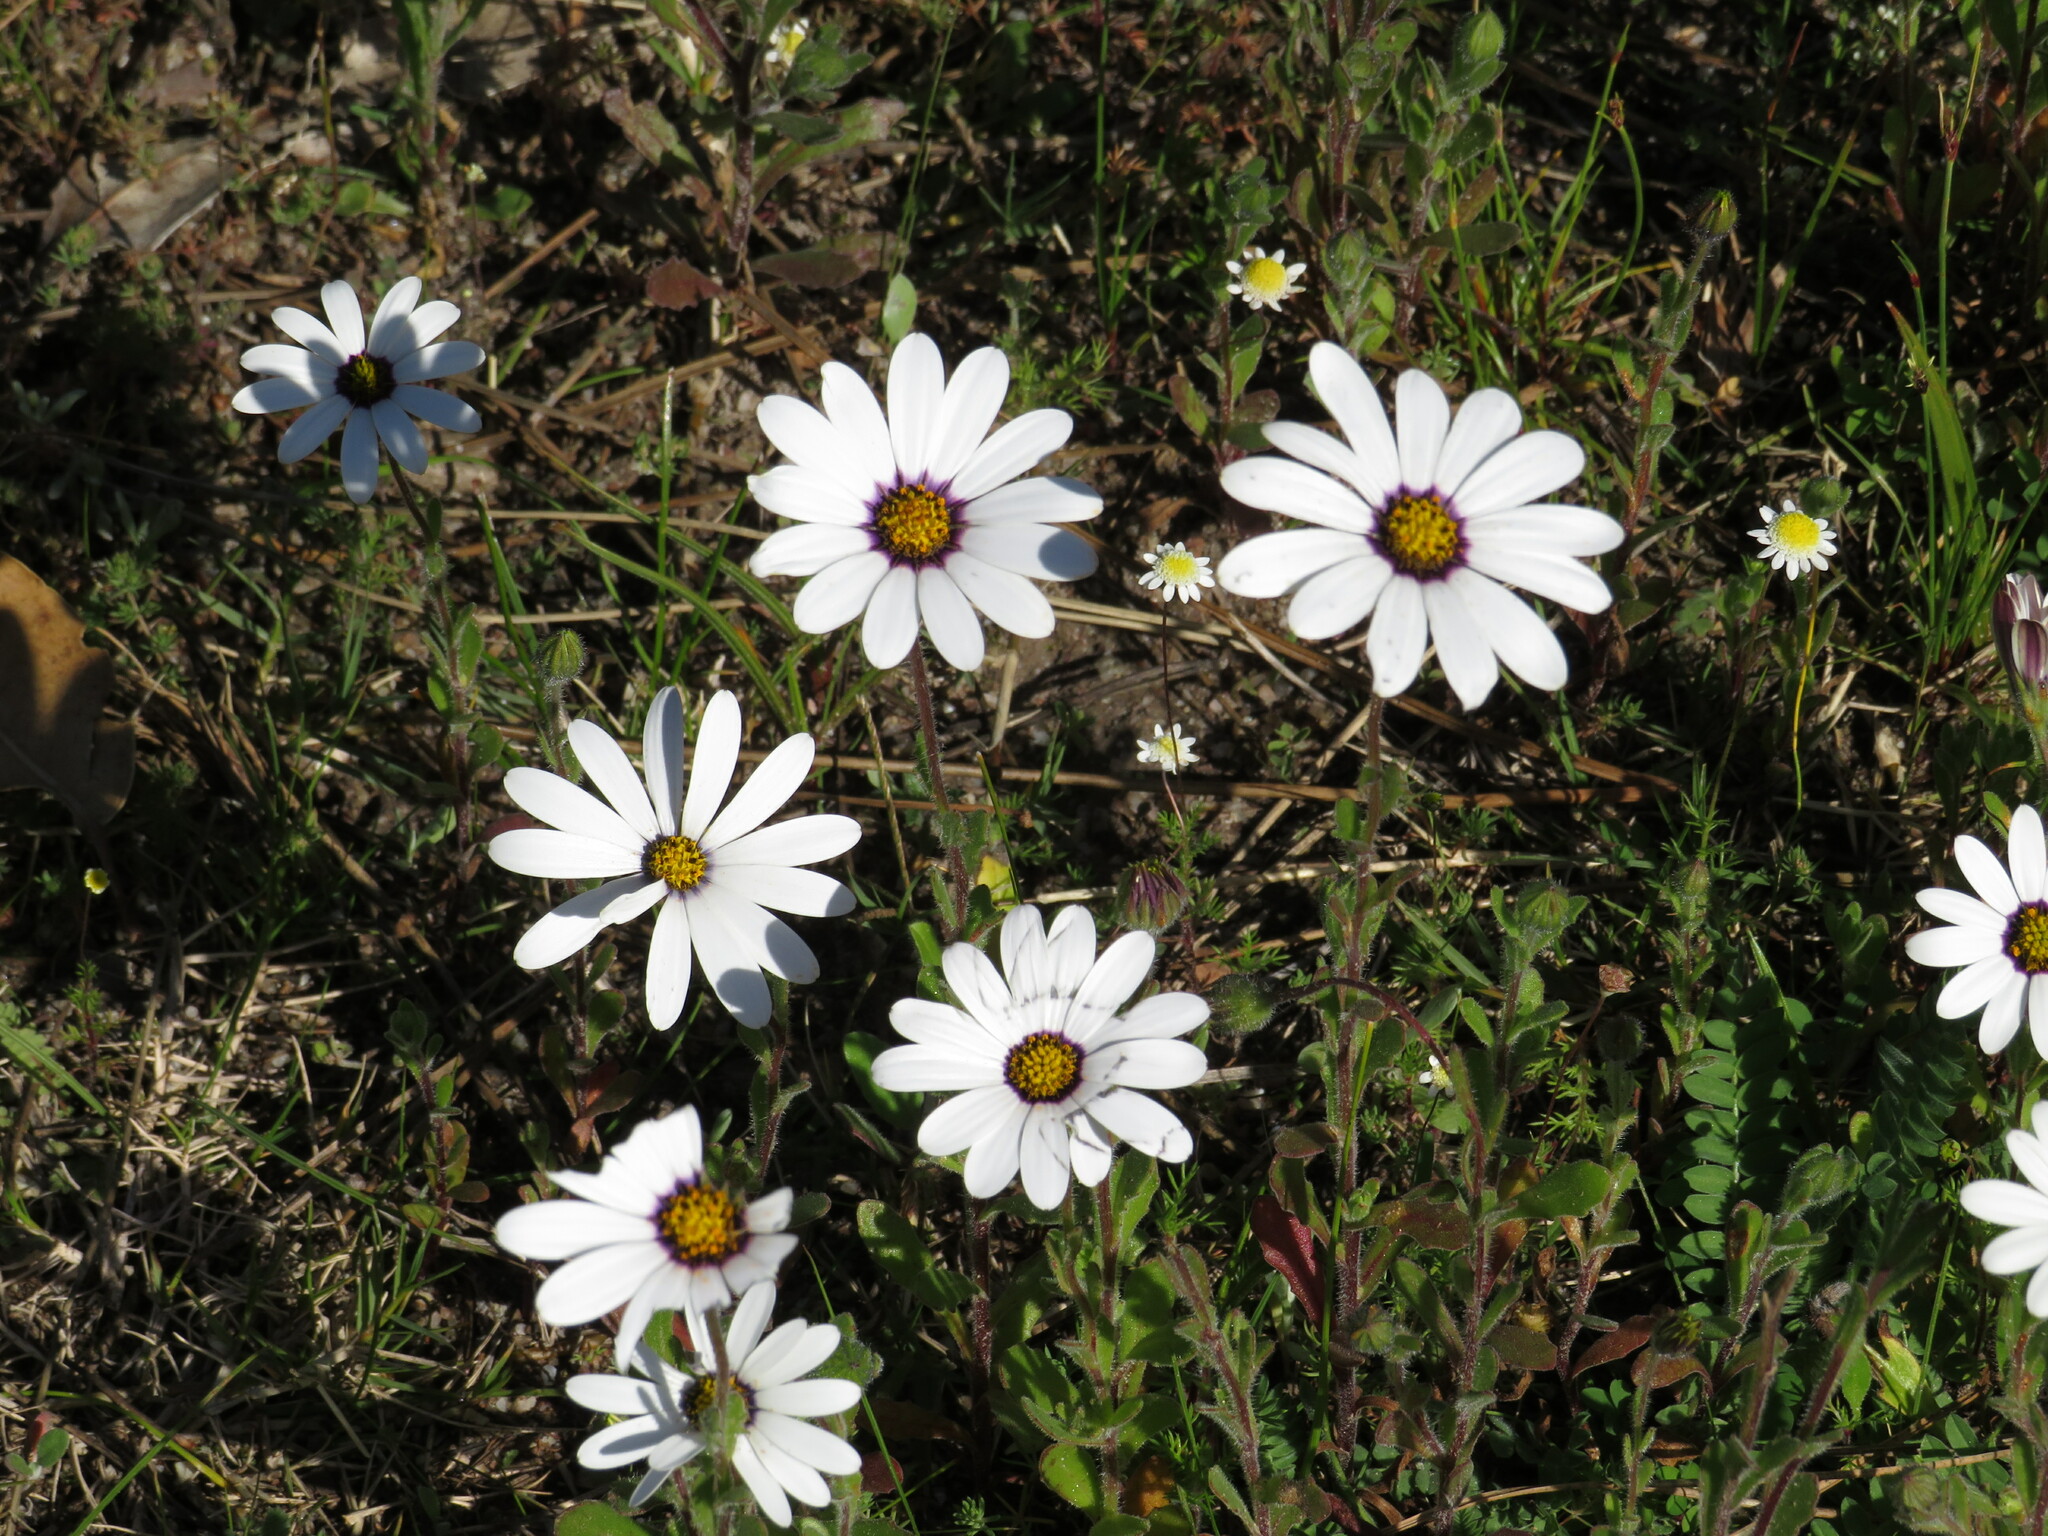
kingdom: Plantae
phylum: Tracheophyta
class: Magnoliopsida
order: Asterales
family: Asteraceae
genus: Dimorphotheca
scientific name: Dimorphotheca pluvialis
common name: Weather prophet
